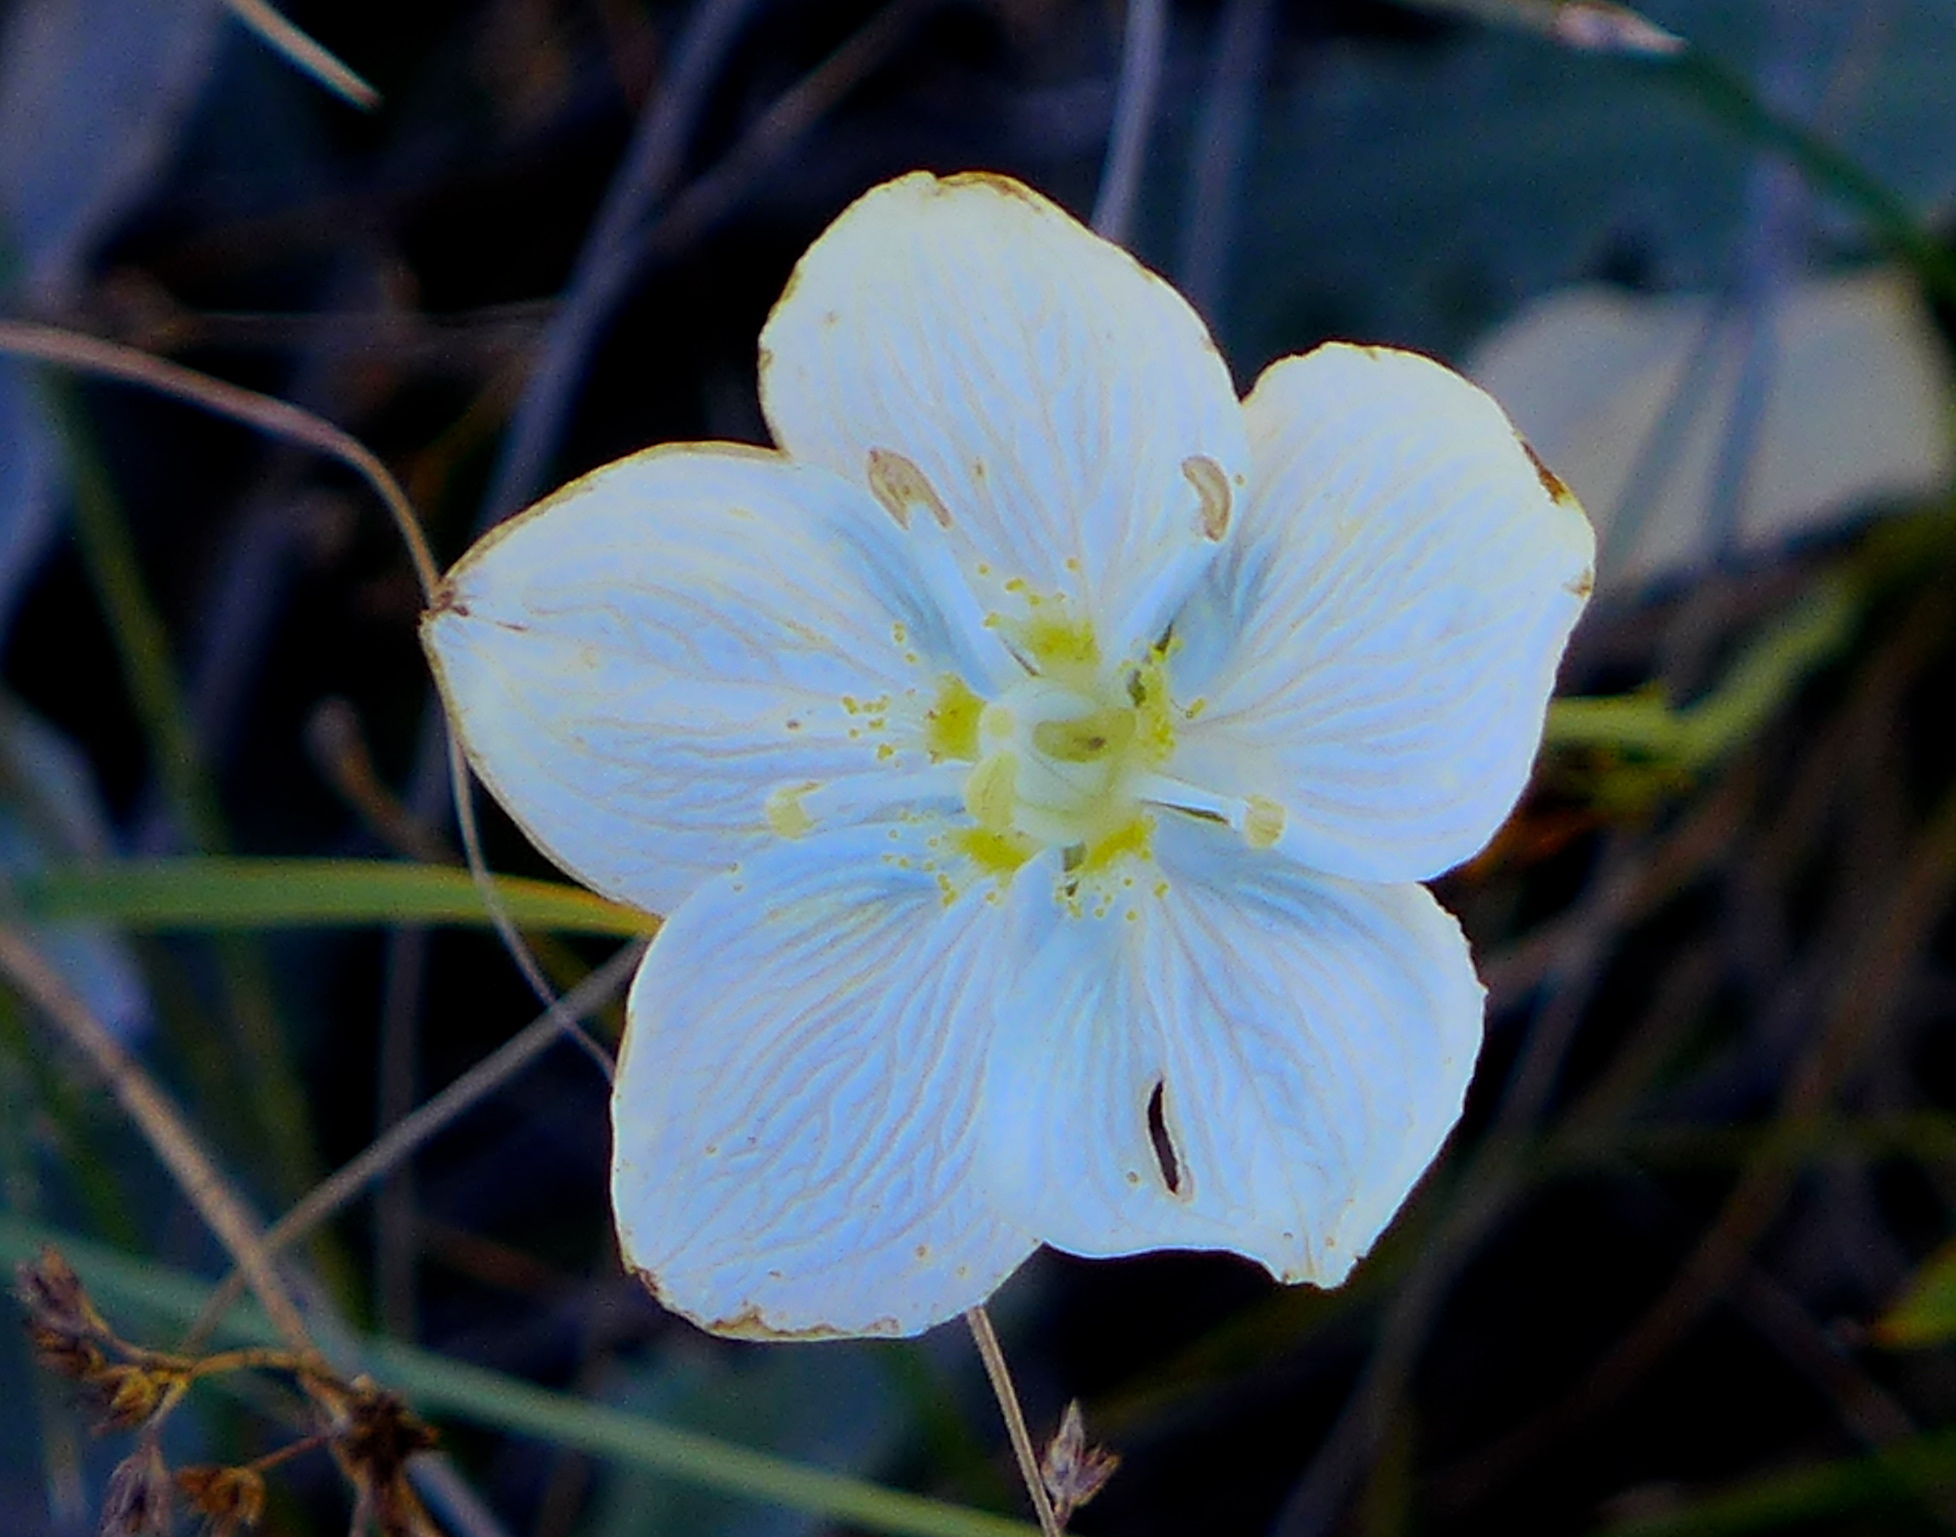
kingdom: Plantae
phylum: Tracheophyta
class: Magnoliopsida
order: Celastrales
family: Parnassiaceae
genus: Parnassia
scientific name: Parnassia palustris
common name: Grass-of-parnassus
